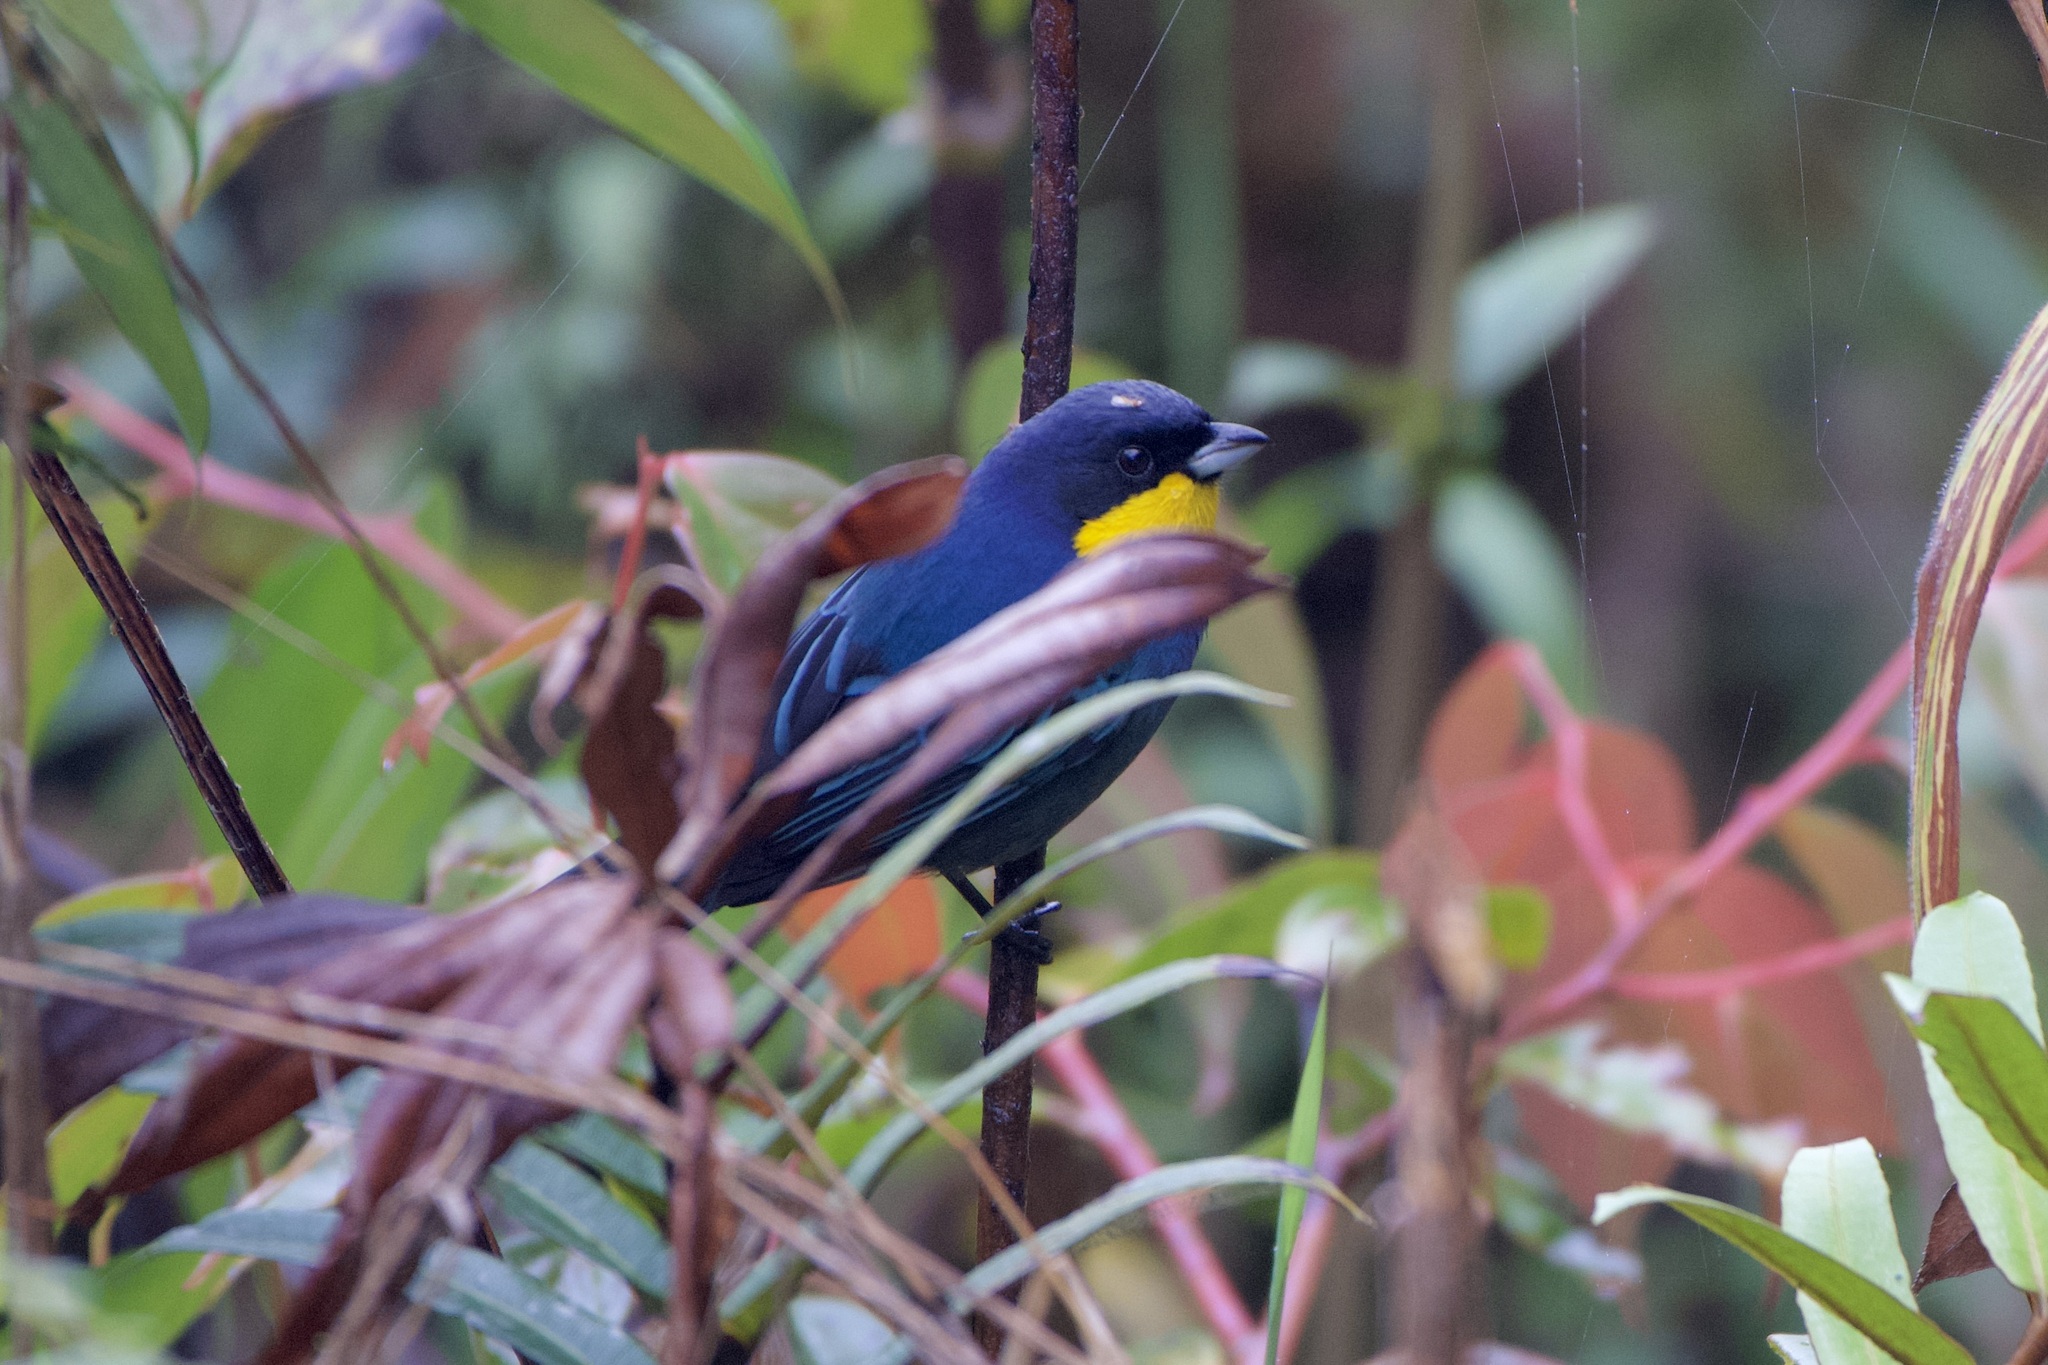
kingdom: Animalia
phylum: Chordata
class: Aves
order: Passeriformes
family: Thraupidae
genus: Iridosornis
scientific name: Iridosornis porphyrocephalus
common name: Purplish-mantled tanager
